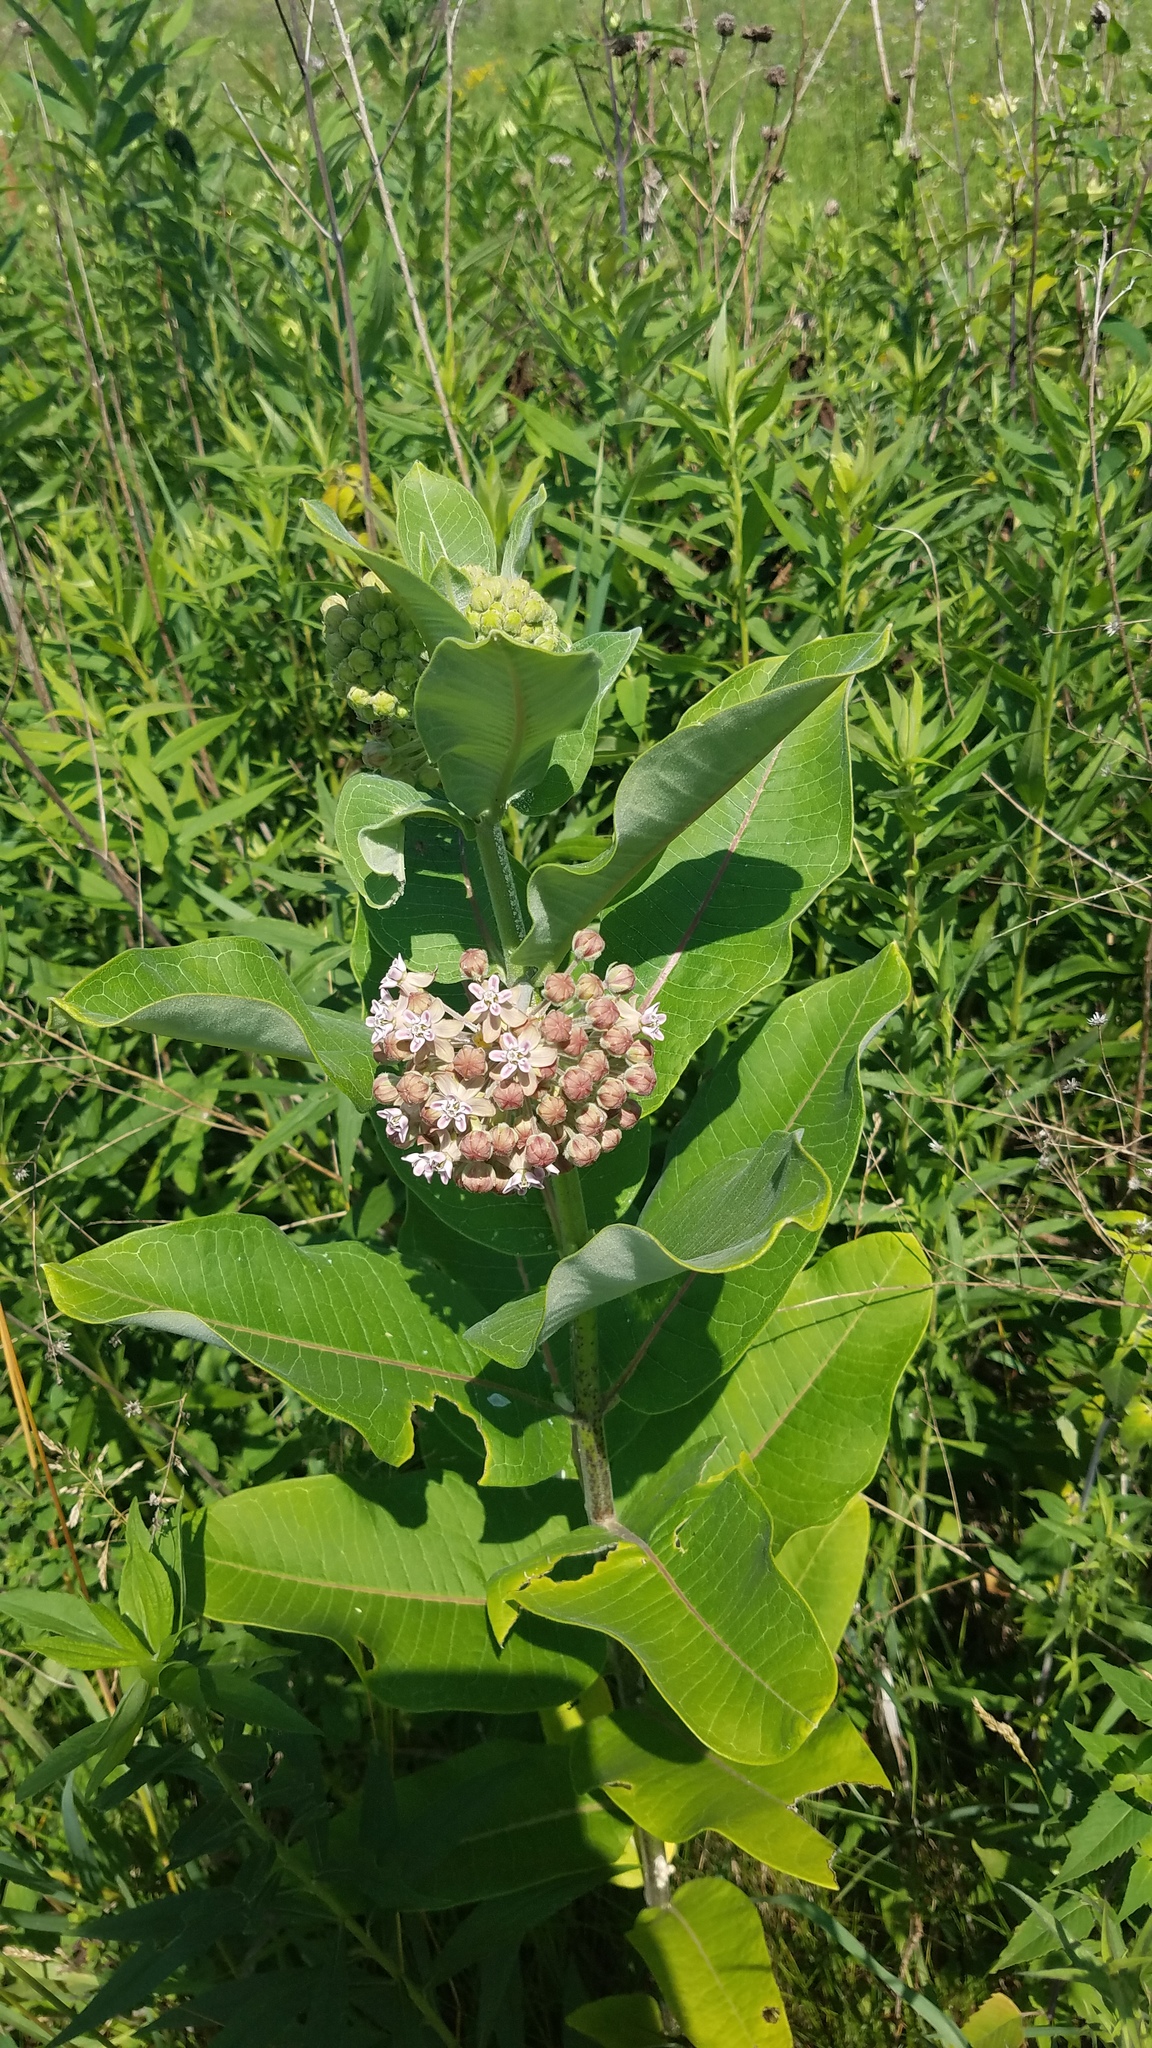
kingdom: Plantae
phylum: Tracheophyta
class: Magnoliopsida
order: Gentianales
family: Apocynaceae
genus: Asclepias
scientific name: Asclepias syriaca
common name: Common milkweed
